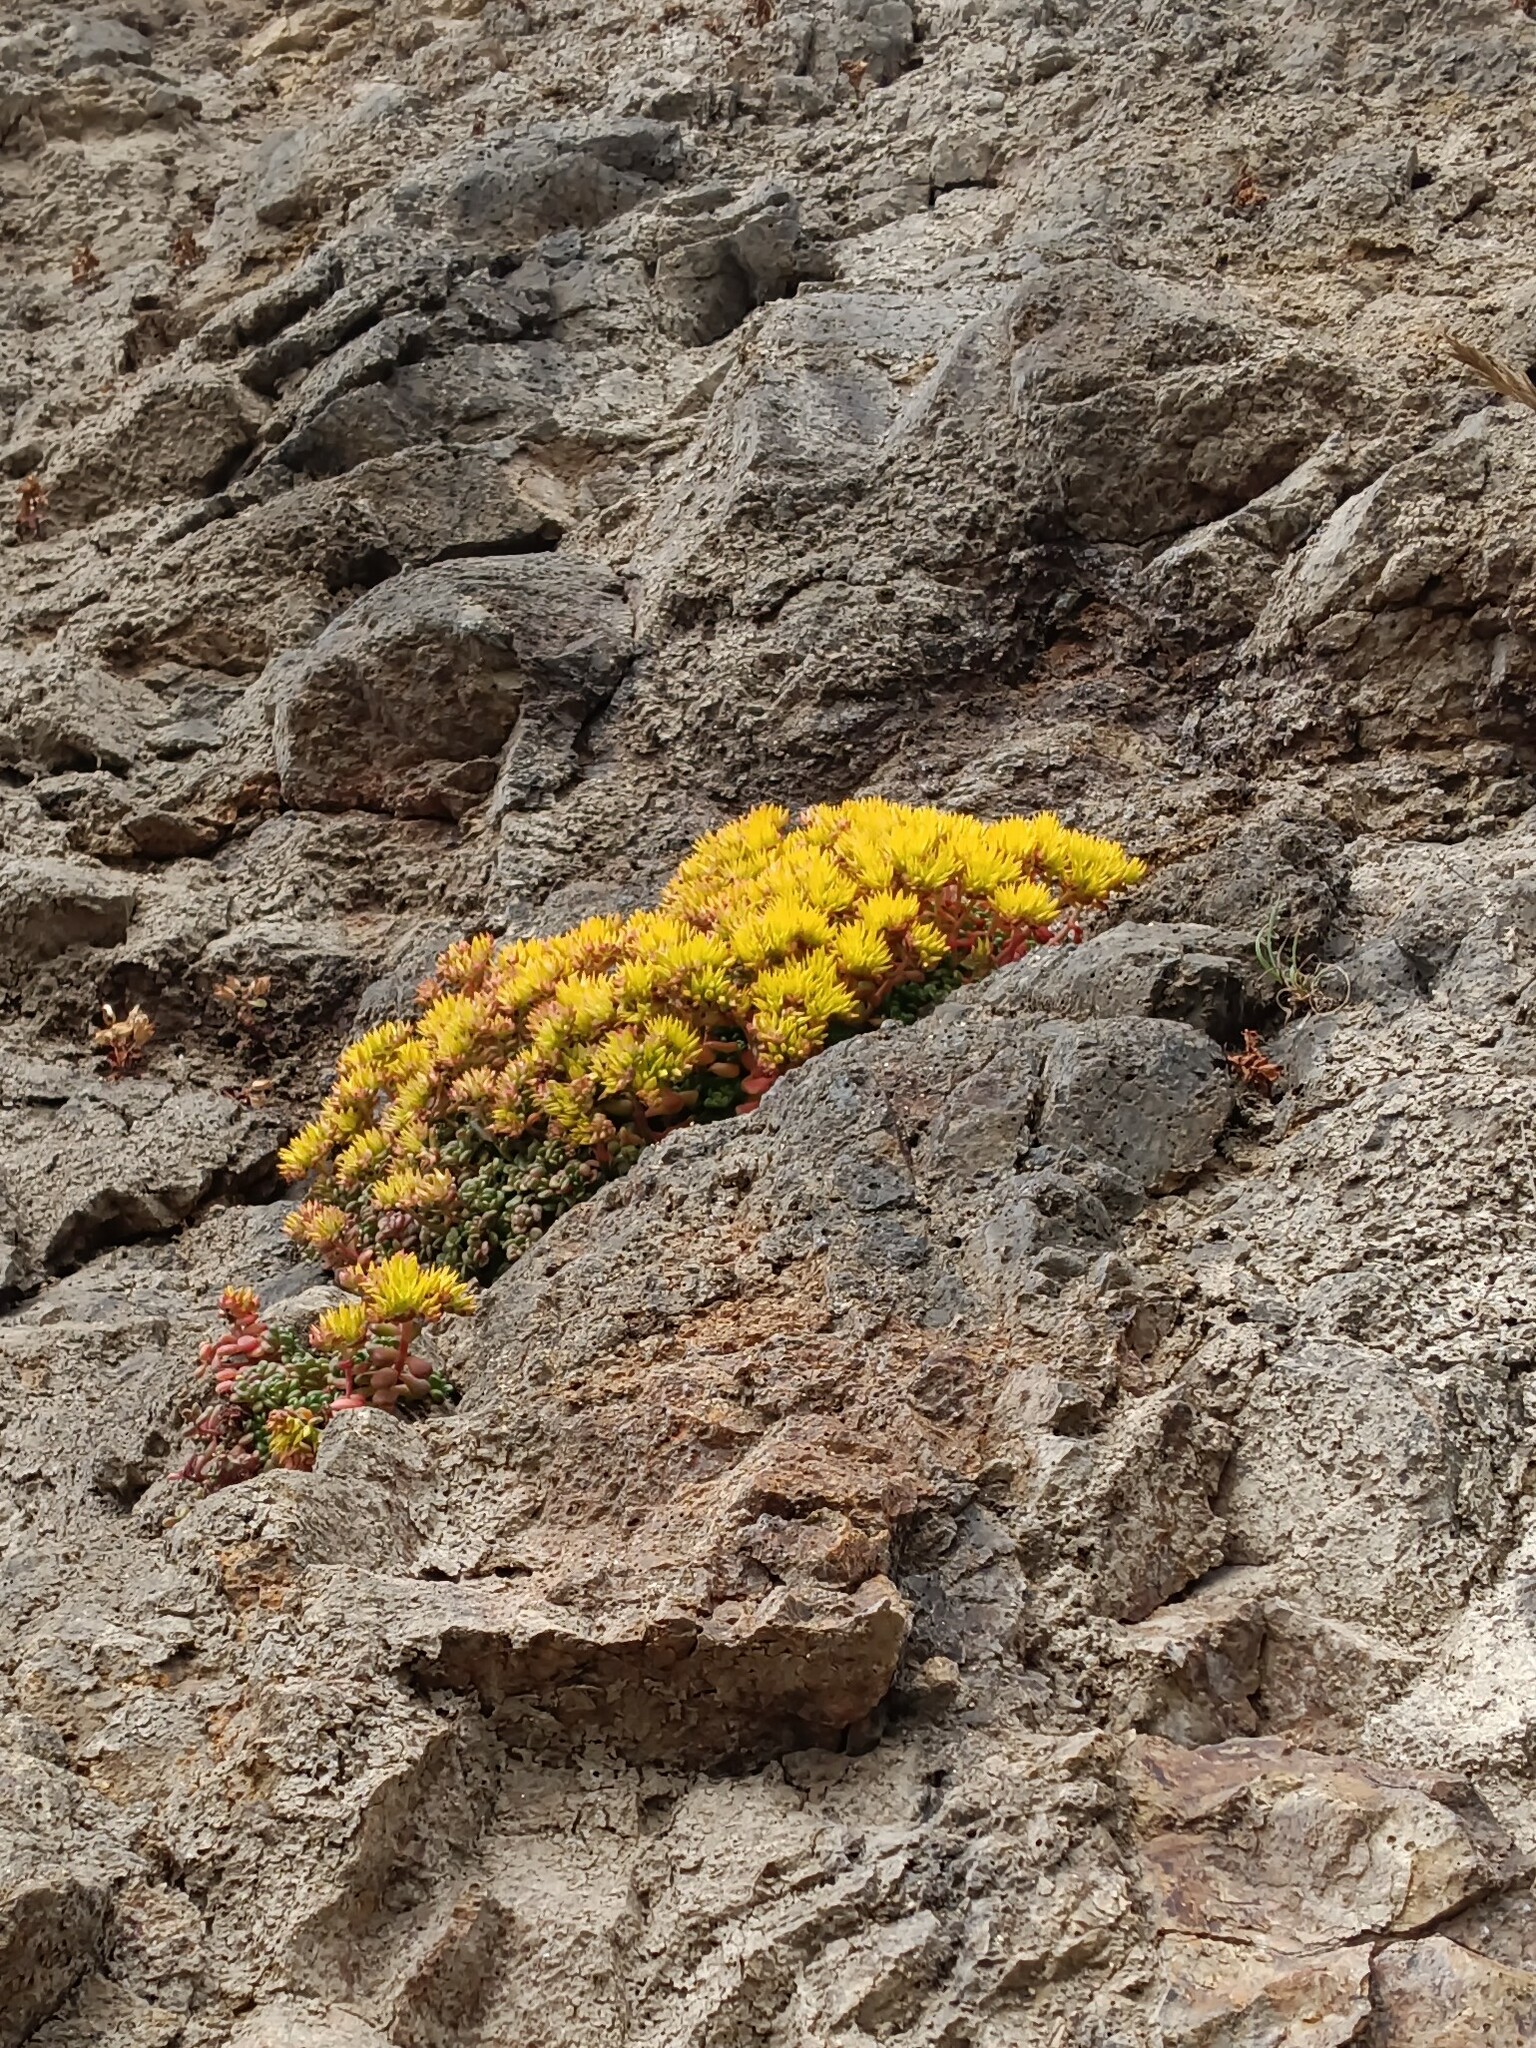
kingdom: Plantae
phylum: Tracheophyta
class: Magnoliopsida
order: Saxifragales
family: Crassulaceae
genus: Sedum
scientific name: Sedum oreganum
